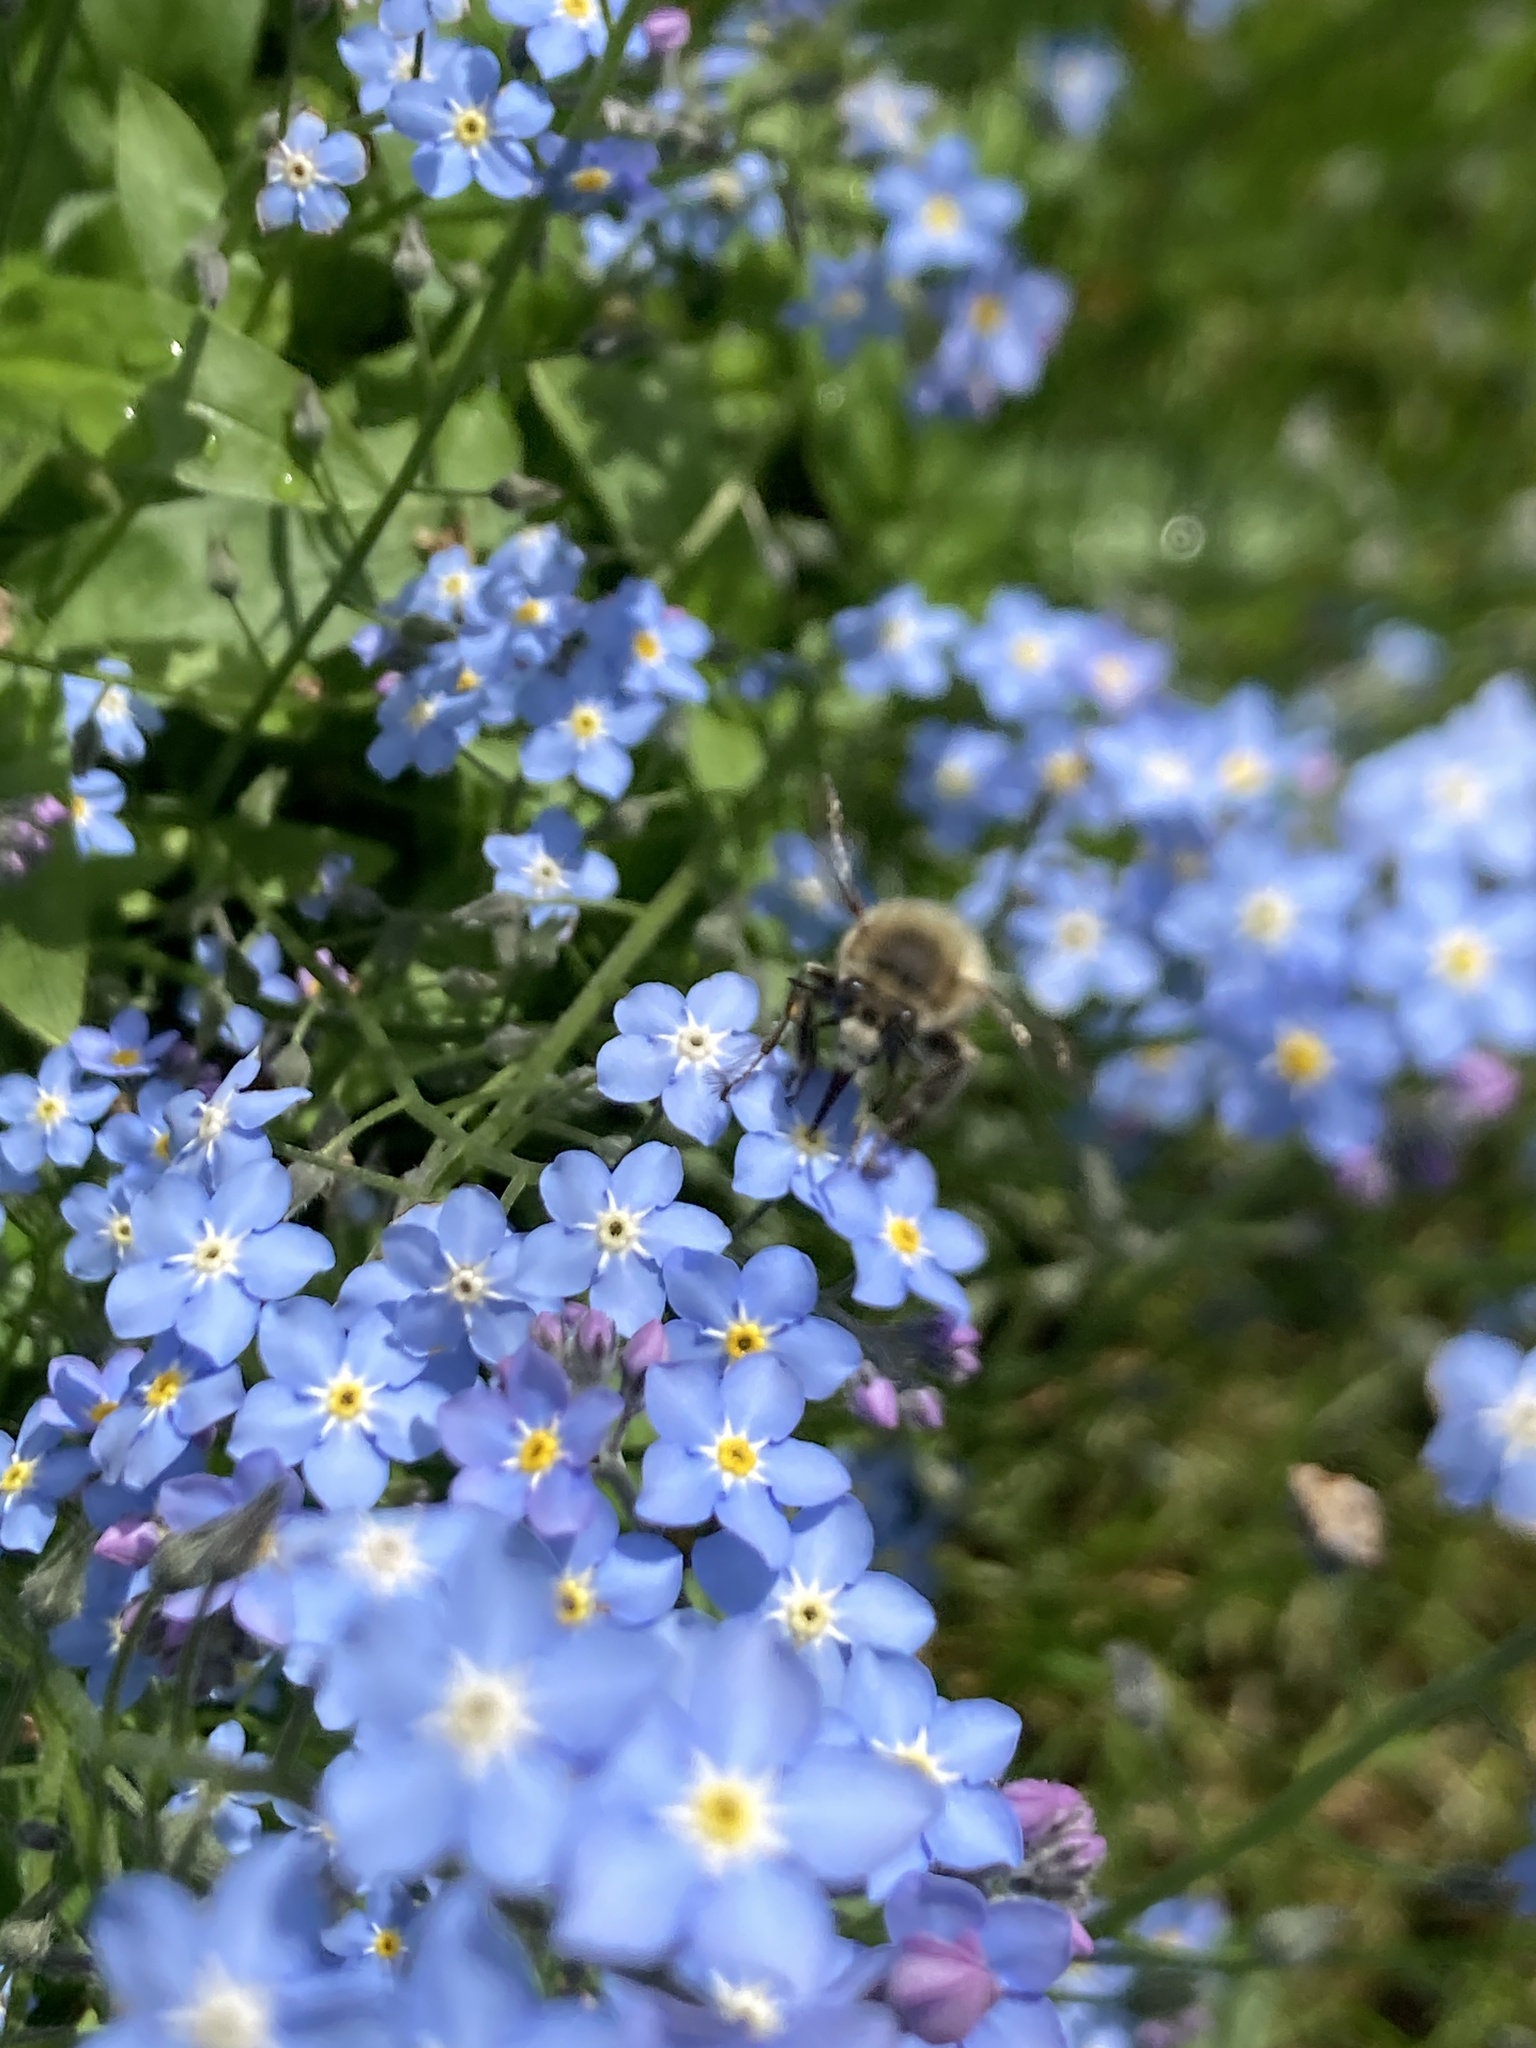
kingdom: Animalia
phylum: Arthropoda
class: Insecta
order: Hymenoptera
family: Apidae
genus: Anthophora
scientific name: Anthophora plumipes
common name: Hairy-footed flower bee
